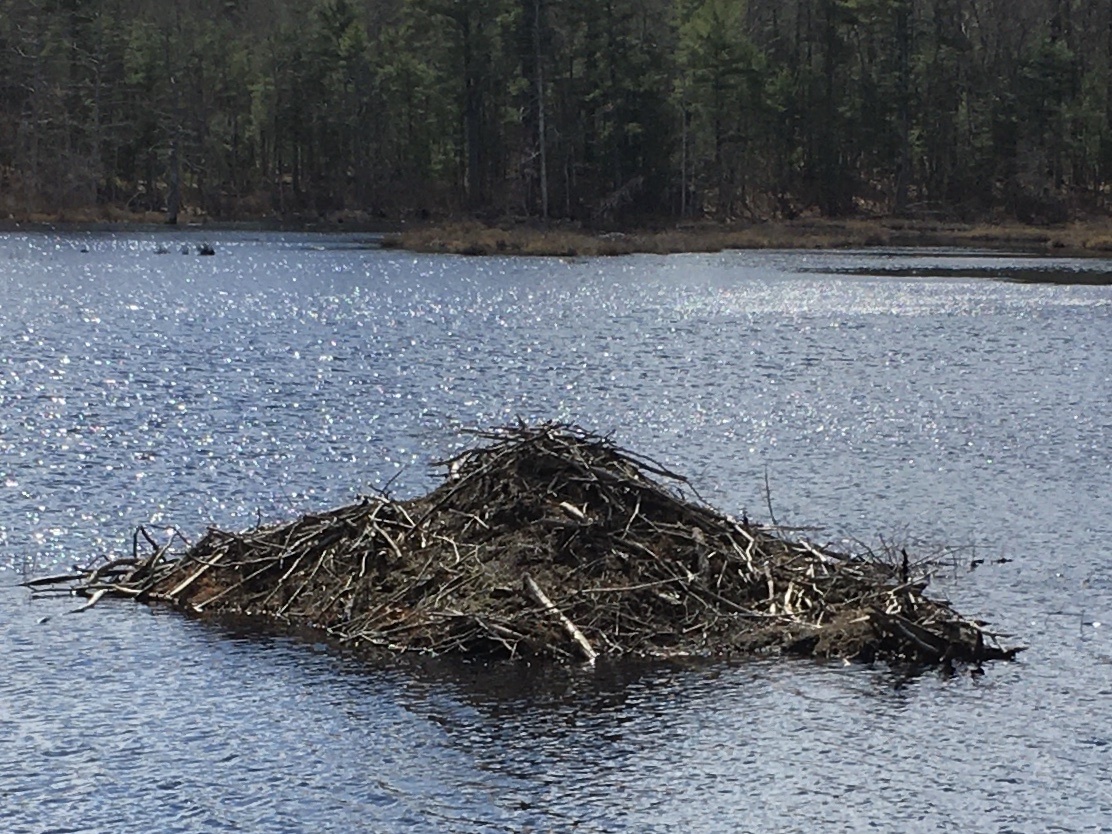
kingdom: Animalia
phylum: Chordata
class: Mammalia
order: Rodentia
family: Castoridae
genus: Castor
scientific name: Castor canadensis
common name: American beaver
